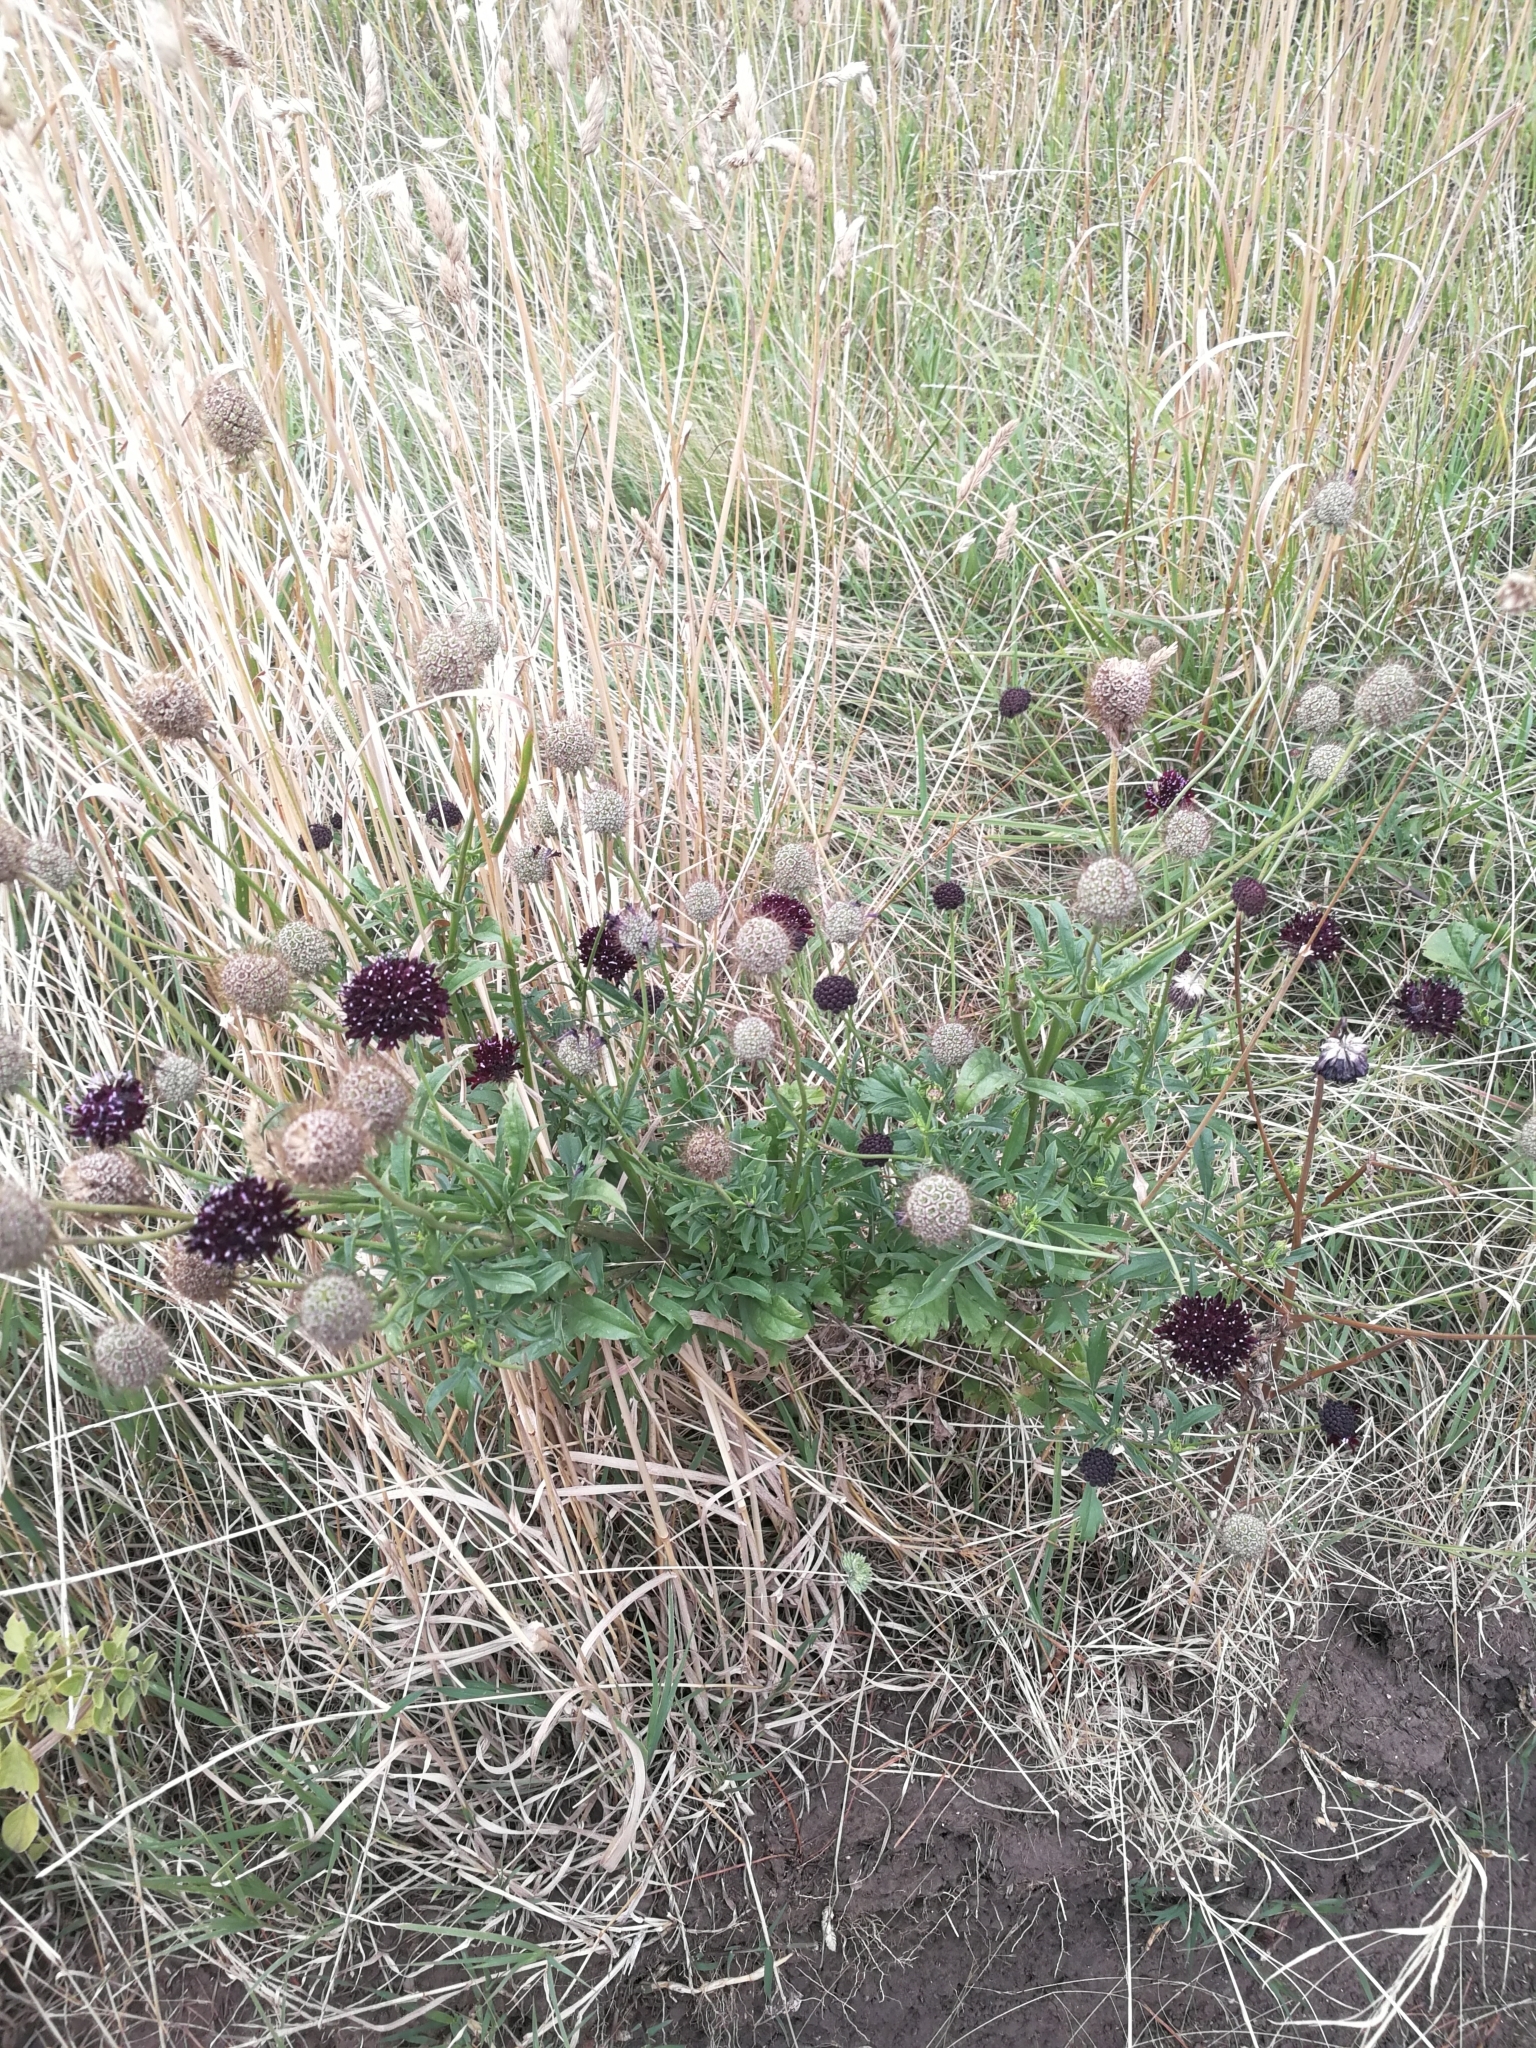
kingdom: Plantae
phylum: Tracheophyta
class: Magnoliopsida
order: Dipsacales
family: Caprifoliaceae
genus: Sixalix
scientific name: Sixalix atropurpurea
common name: Sweet scabious
